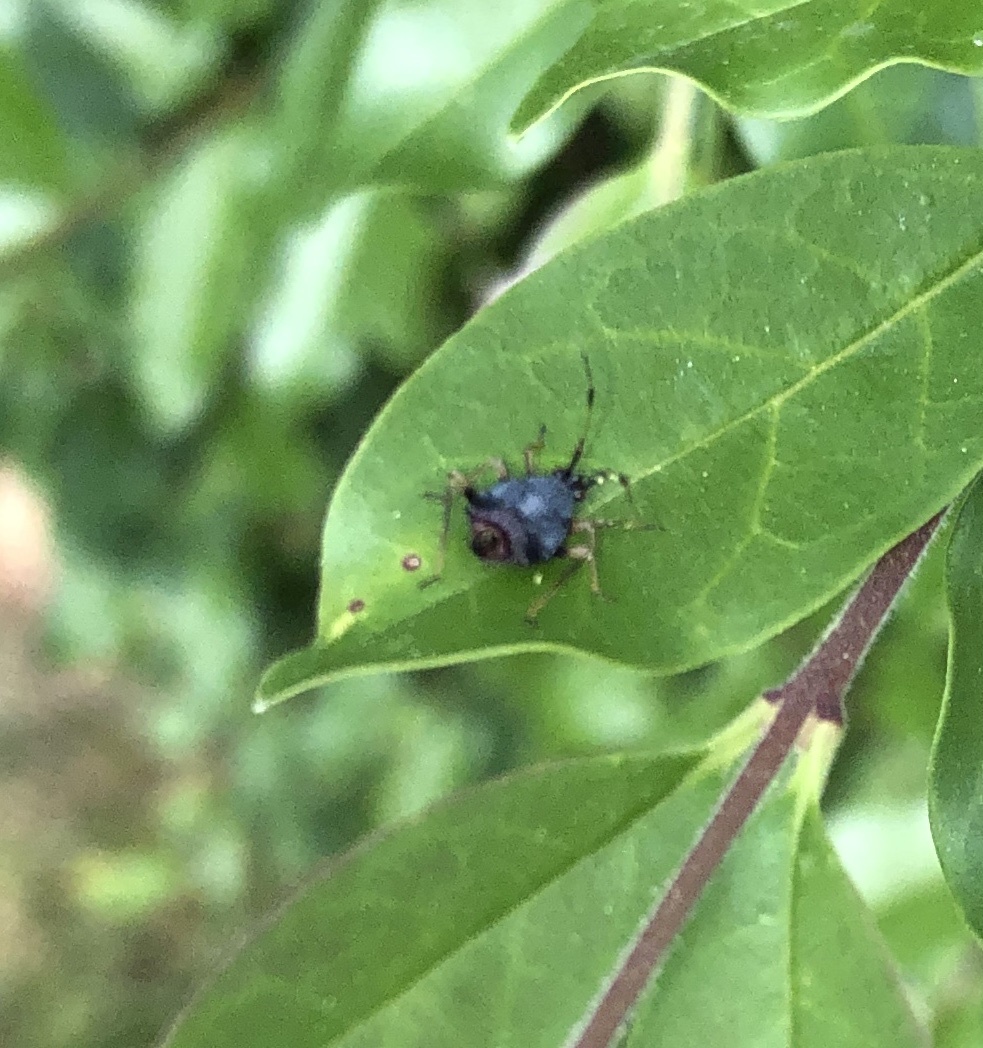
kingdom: Animalia
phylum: Arthropoda
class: Insecta
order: Hemiptera
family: Miridae
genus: Deraeocoris
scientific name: Deraeocoris ruber
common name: Plant bug
